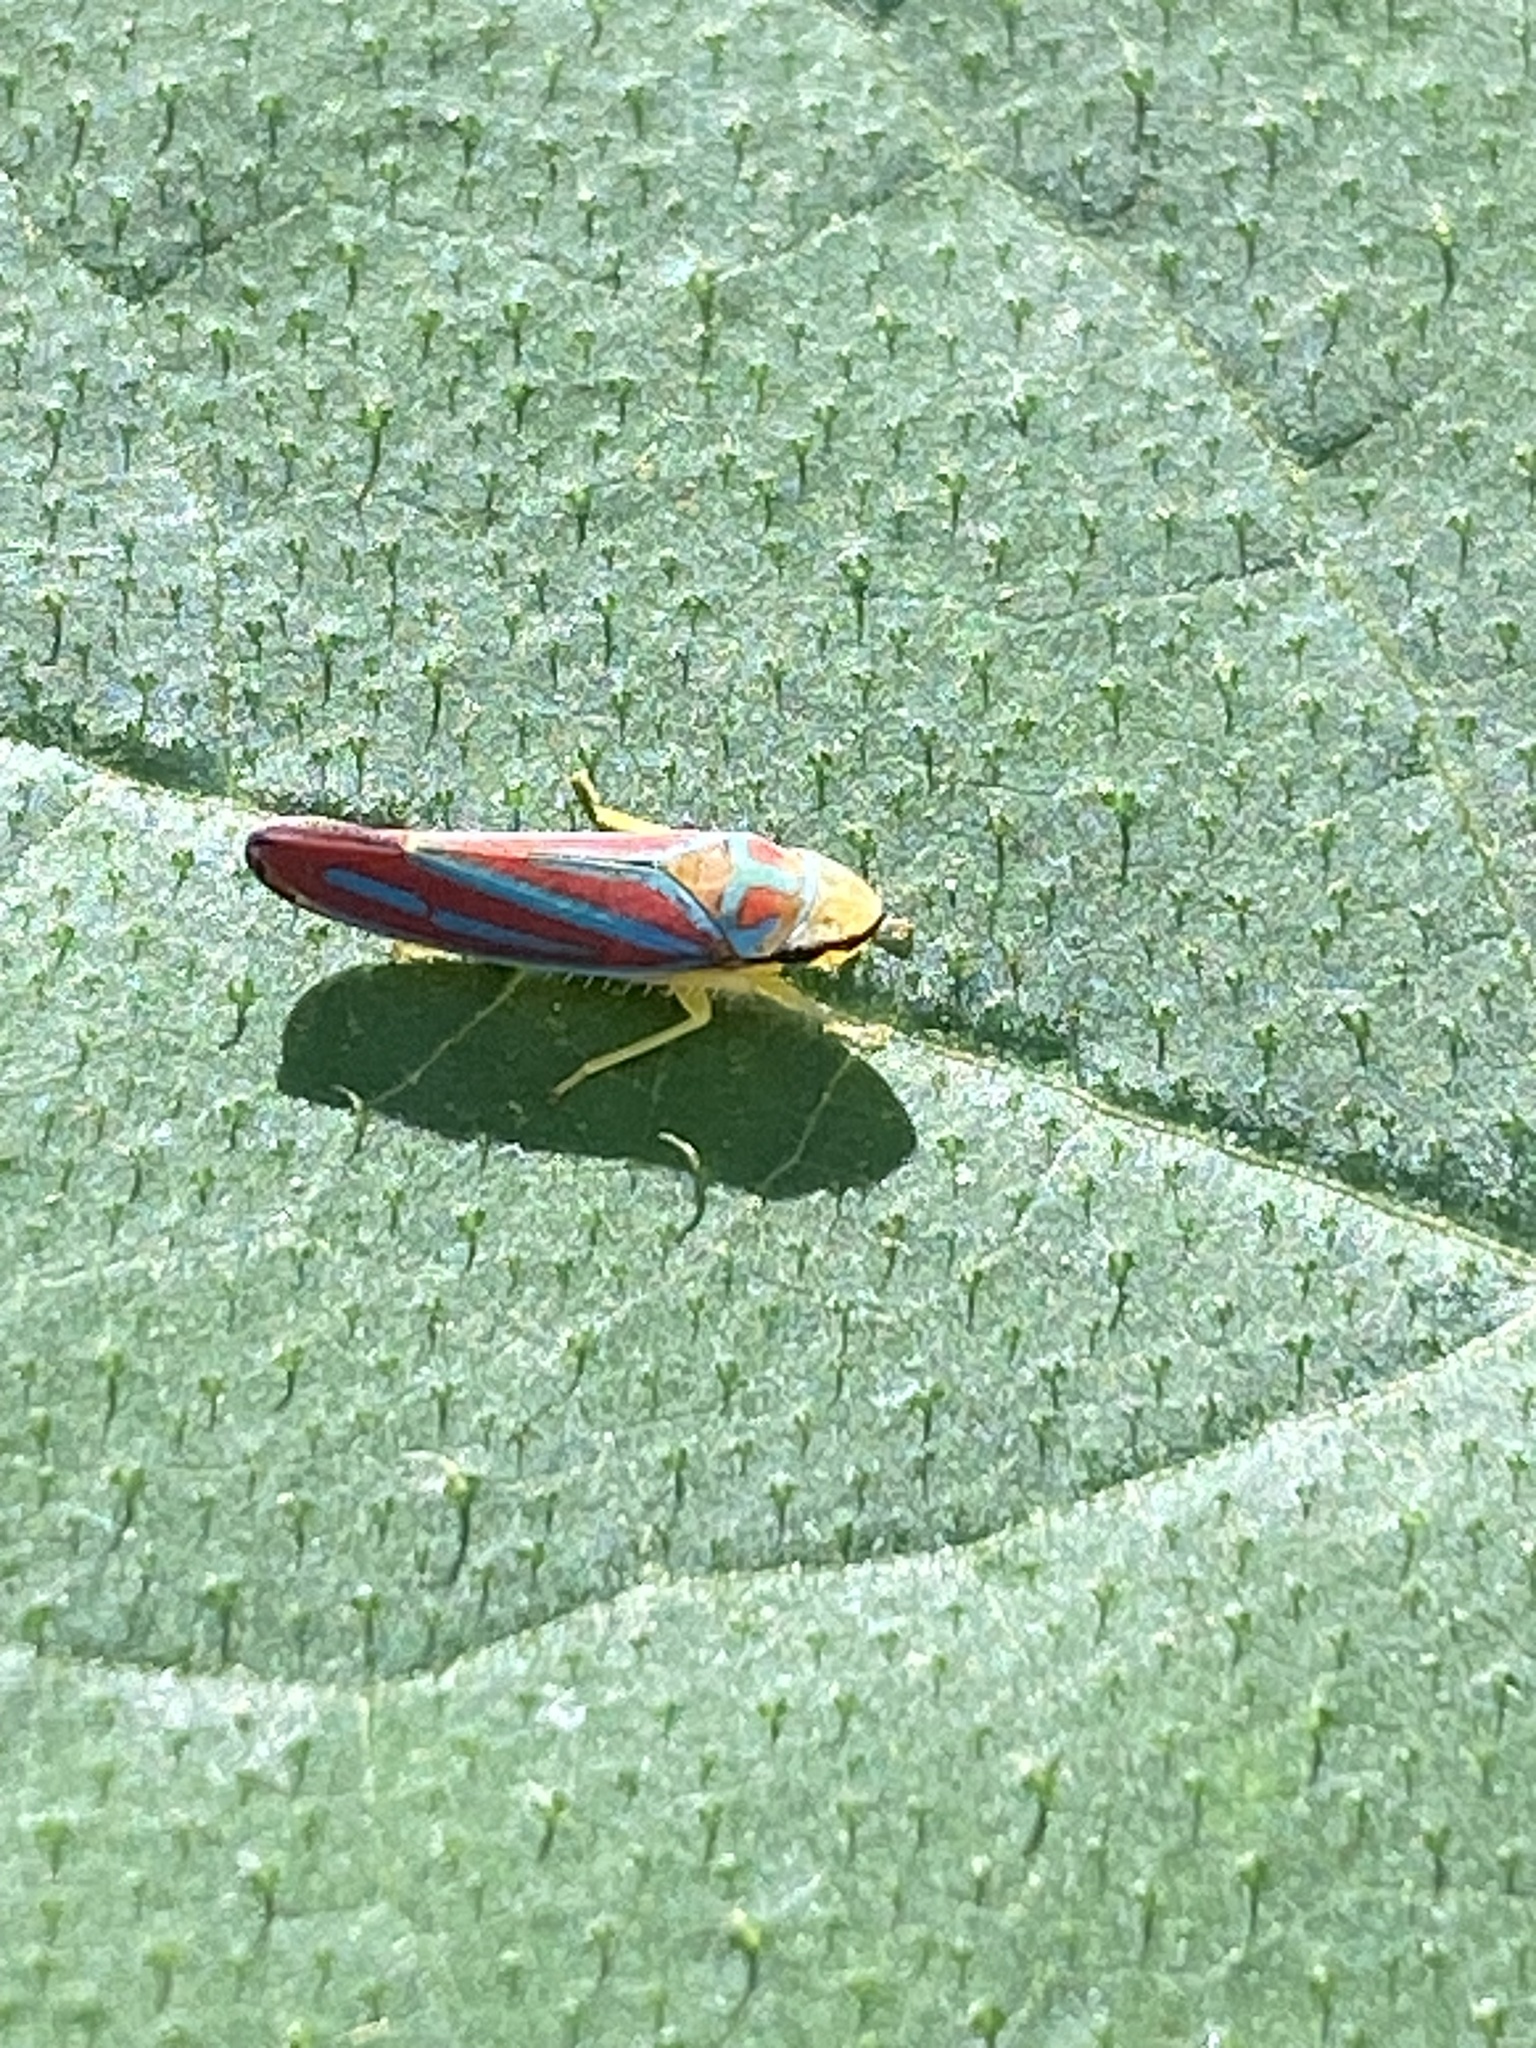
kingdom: Animalia
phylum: Arthropoda
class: Insecta
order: Hemiptera
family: Cicadellidae
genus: Graphocephala
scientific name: Graphocephala coccinea
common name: Candy-striped leafhopper
